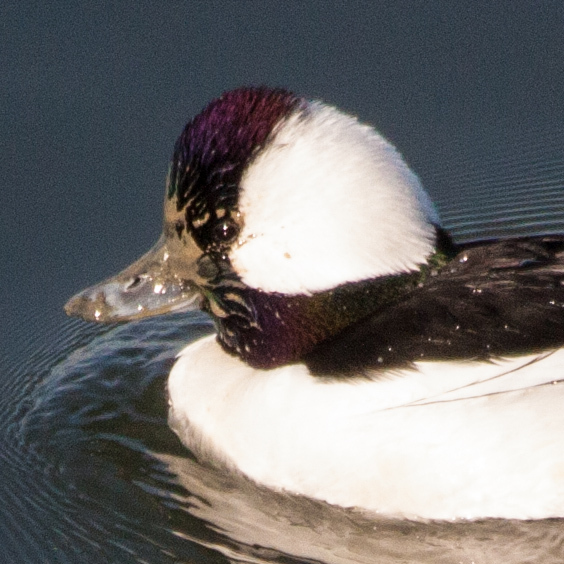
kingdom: Animalia
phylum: Chordata
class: Aves
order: Anseriformes
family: Anatidae
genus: Bucephala
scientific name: Bucephala albeola
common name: Bufflehead
